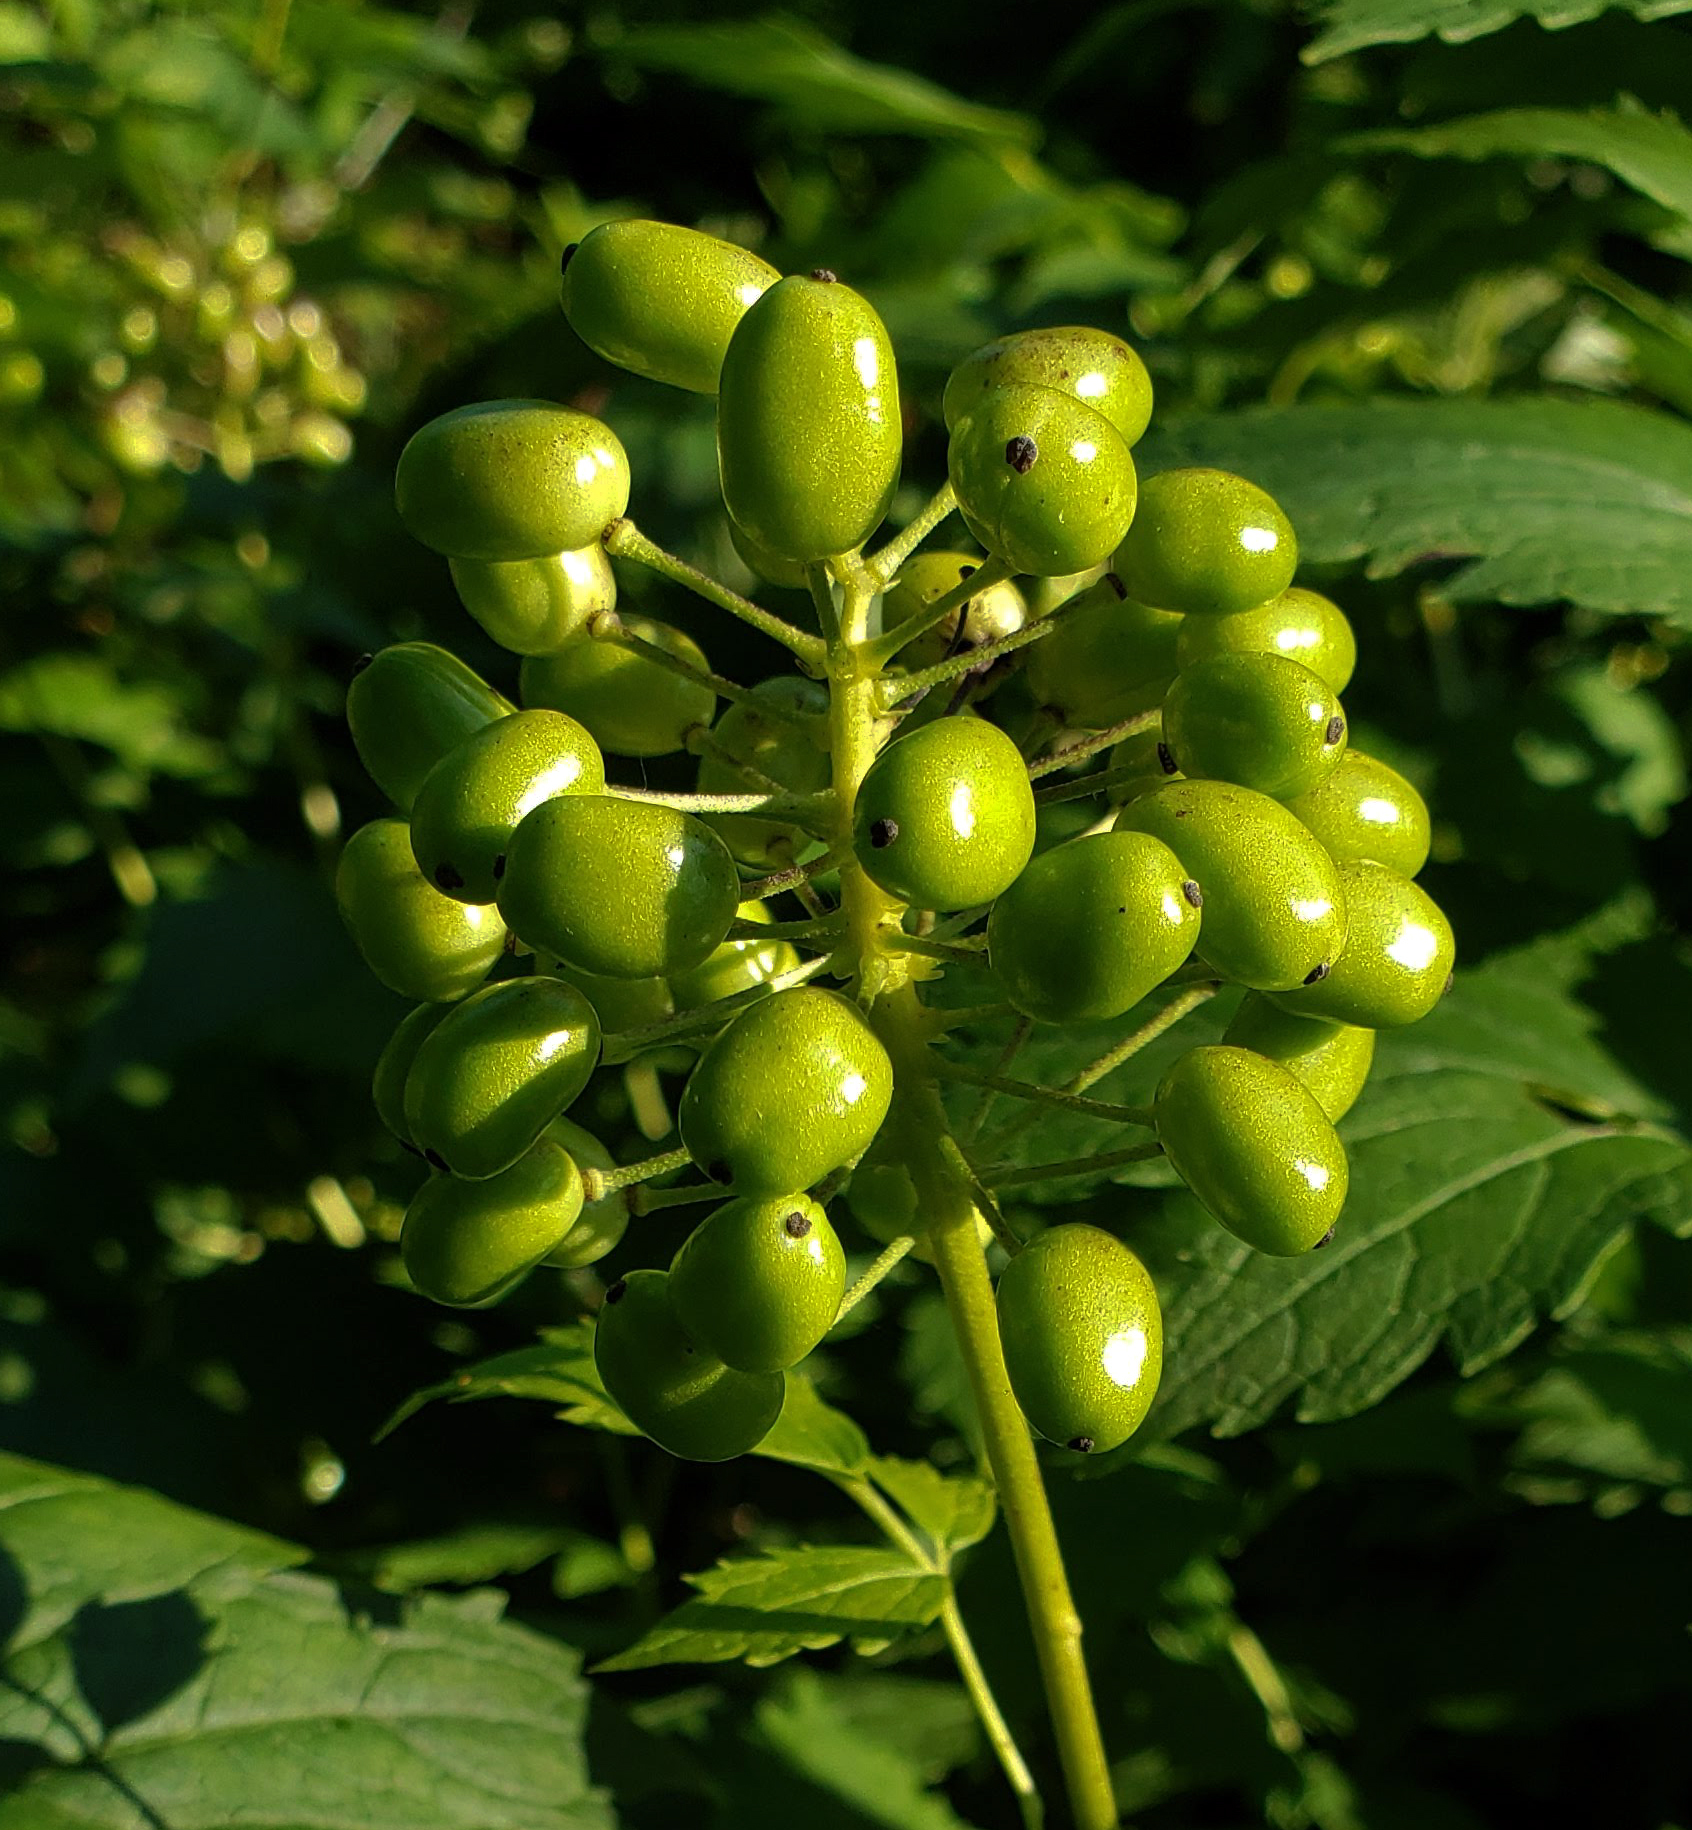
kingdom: Plantae
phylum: Tracheophyta
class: Magnoliopsida
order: Ranunculales
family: Ranunculaceae
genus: Actaea
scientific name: Actaea rubra
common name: Red baneberry
